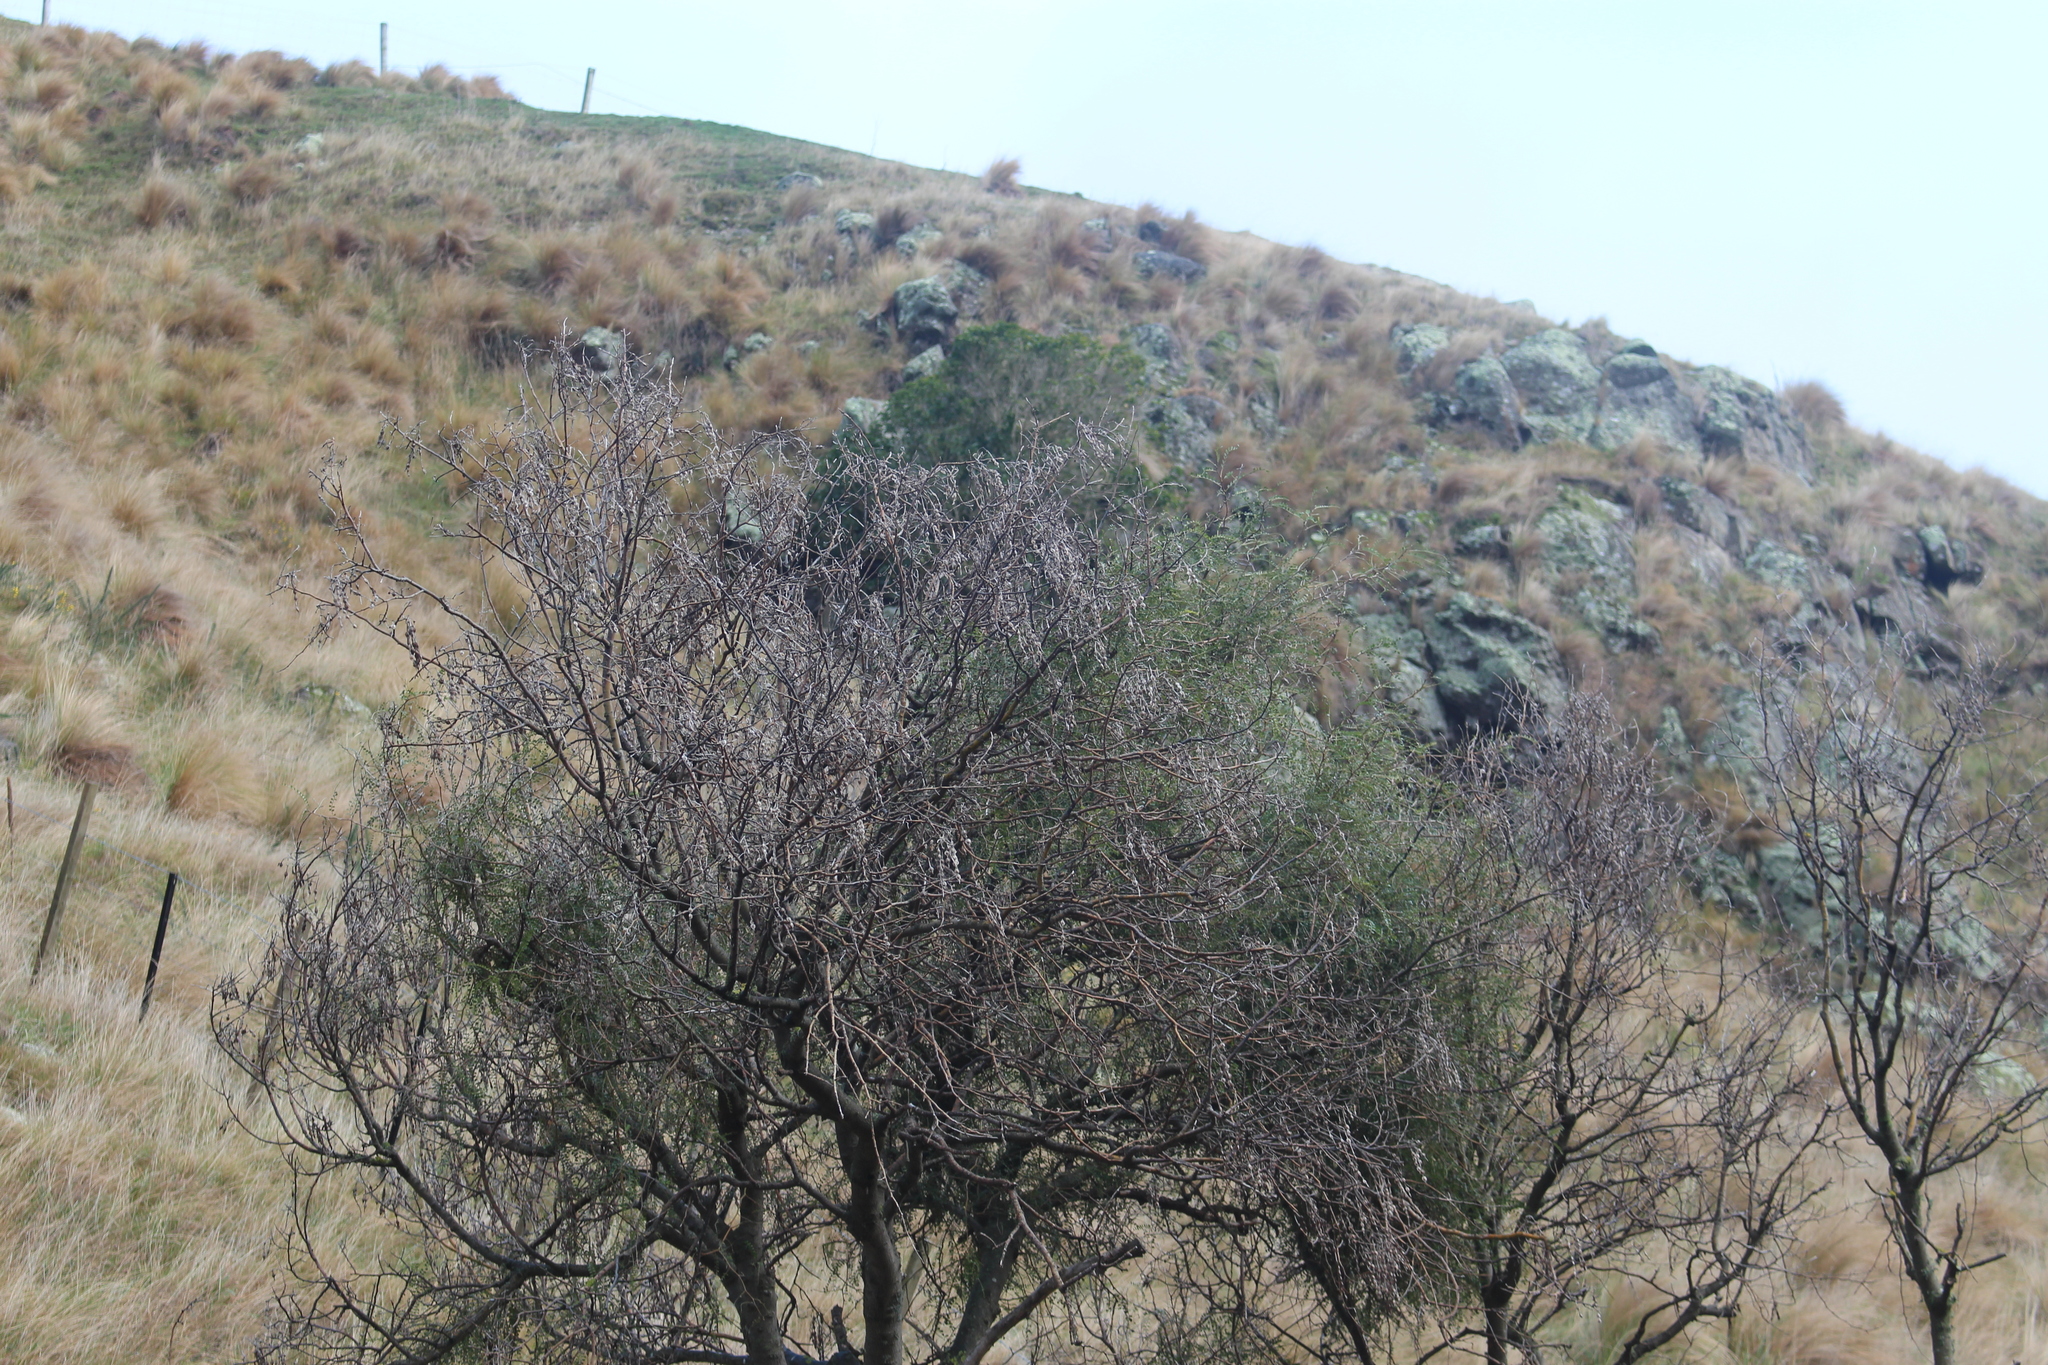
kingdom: Plantae
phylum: Tracheophyta
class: Magnoliopsida
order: Fabales
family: Fabaceae
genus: Sophora
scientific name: Sophora microphylla
